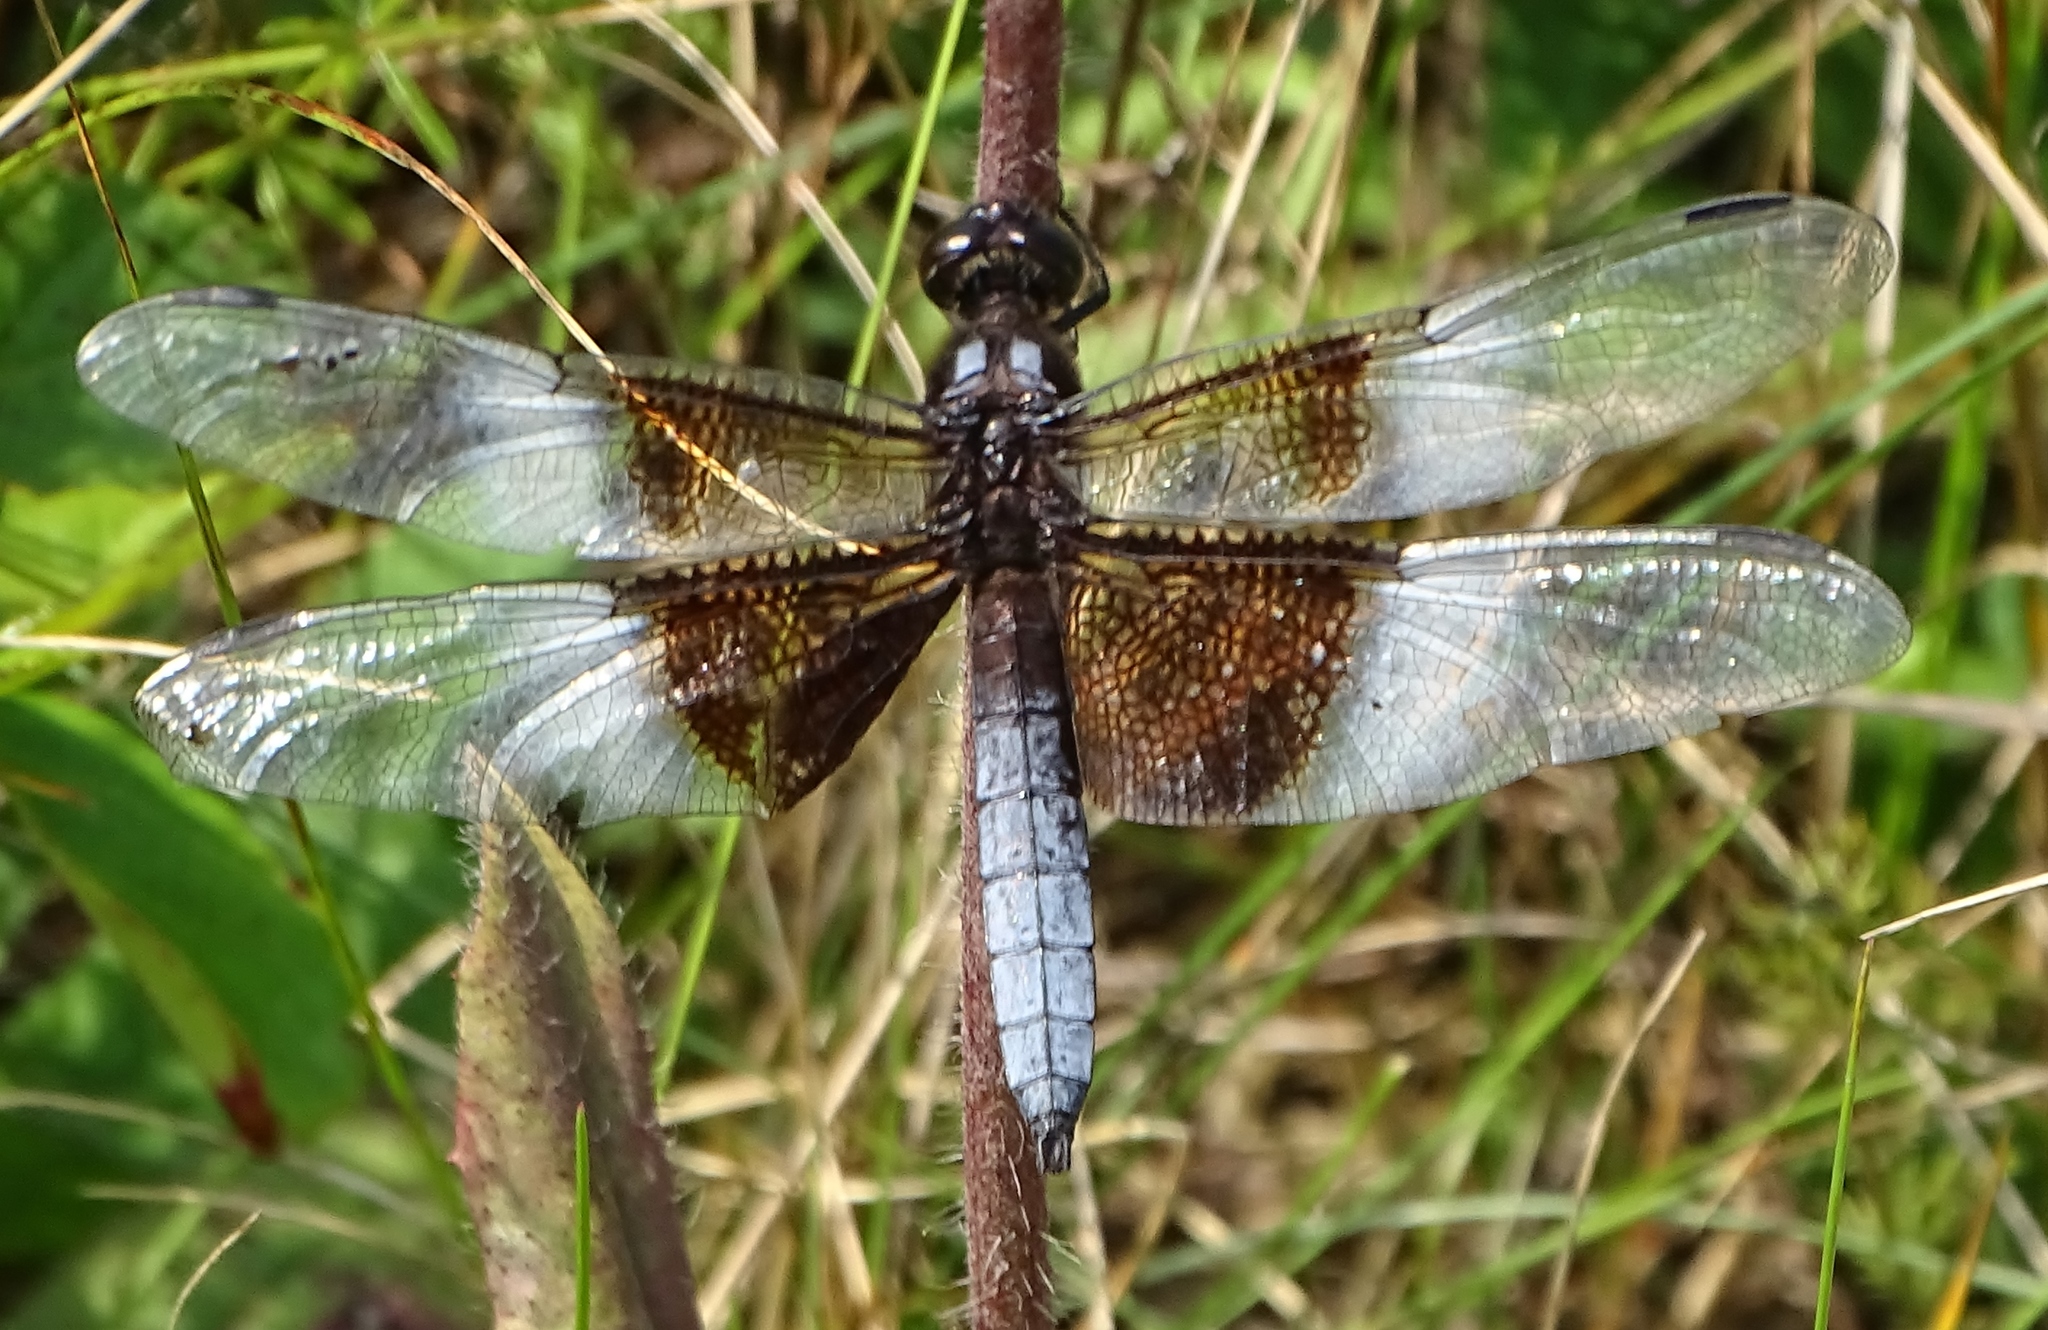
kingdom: Animalia
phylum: Arthropoda
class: Insecta
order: Odonata
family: Libellulidae
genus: Libellula
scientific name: Libellula luctuosa
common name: Widow skimmer
